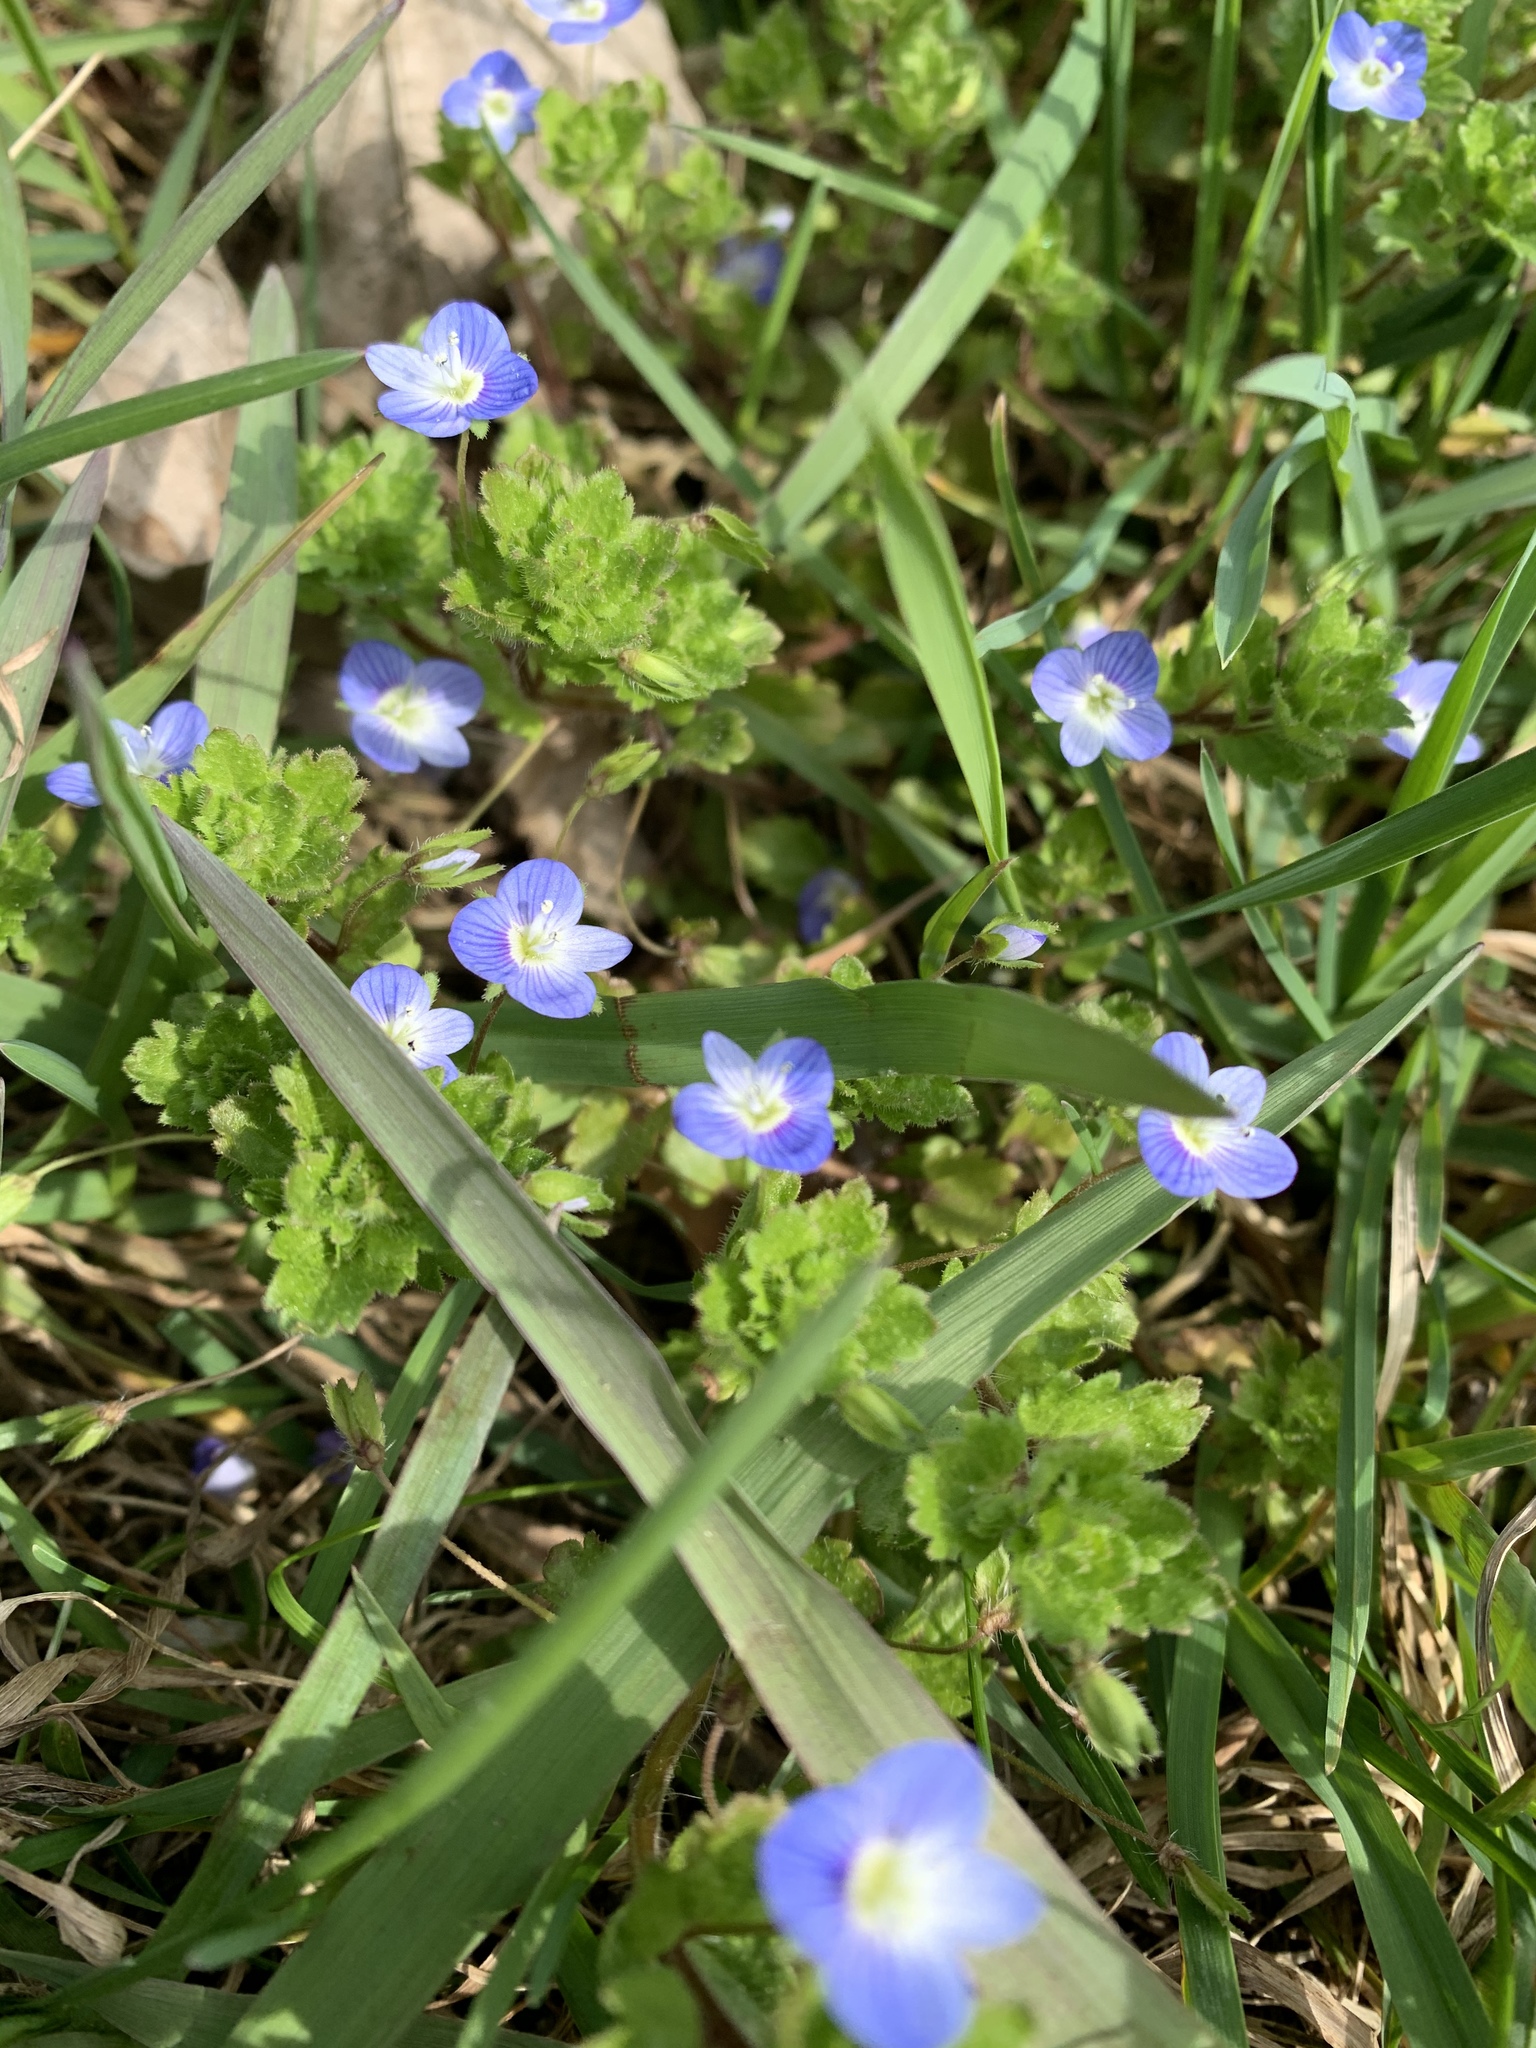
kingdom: Plantae
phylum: Tracheophyta
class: Magnoliopsida
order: Lamiales
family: Plantaginaceae
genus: Veronica
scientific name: Veronica persica
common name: Common field-speedwell
